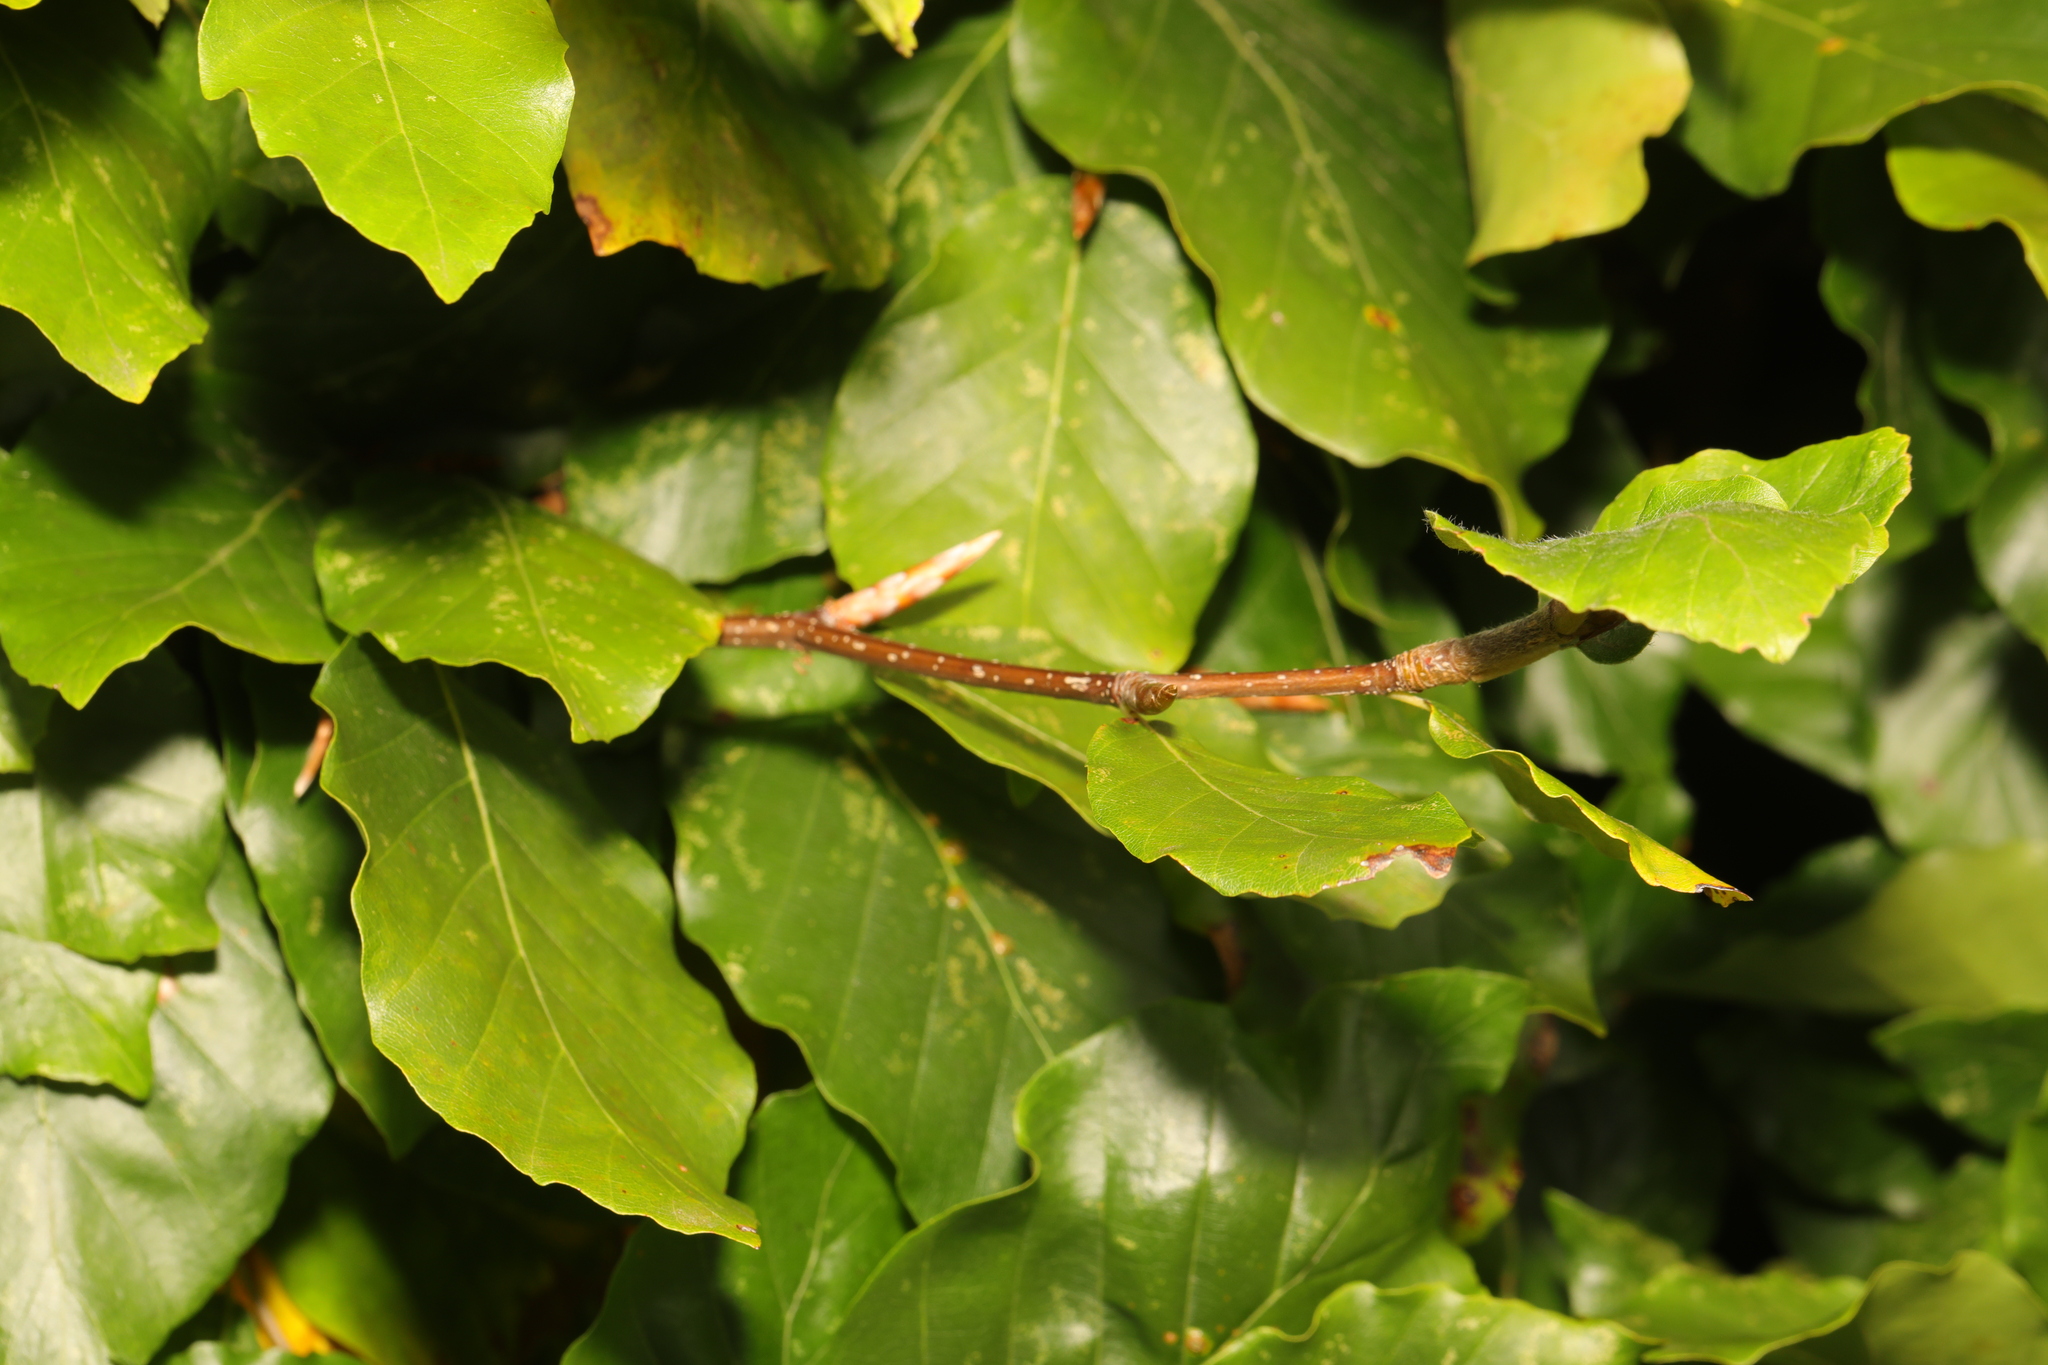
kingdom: Plantae
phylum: Tracheophyta
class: Magnoliopsida
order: Fagales
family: Fagaceae
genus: Fagus
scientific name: Fagus sylvatica
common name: Beech
